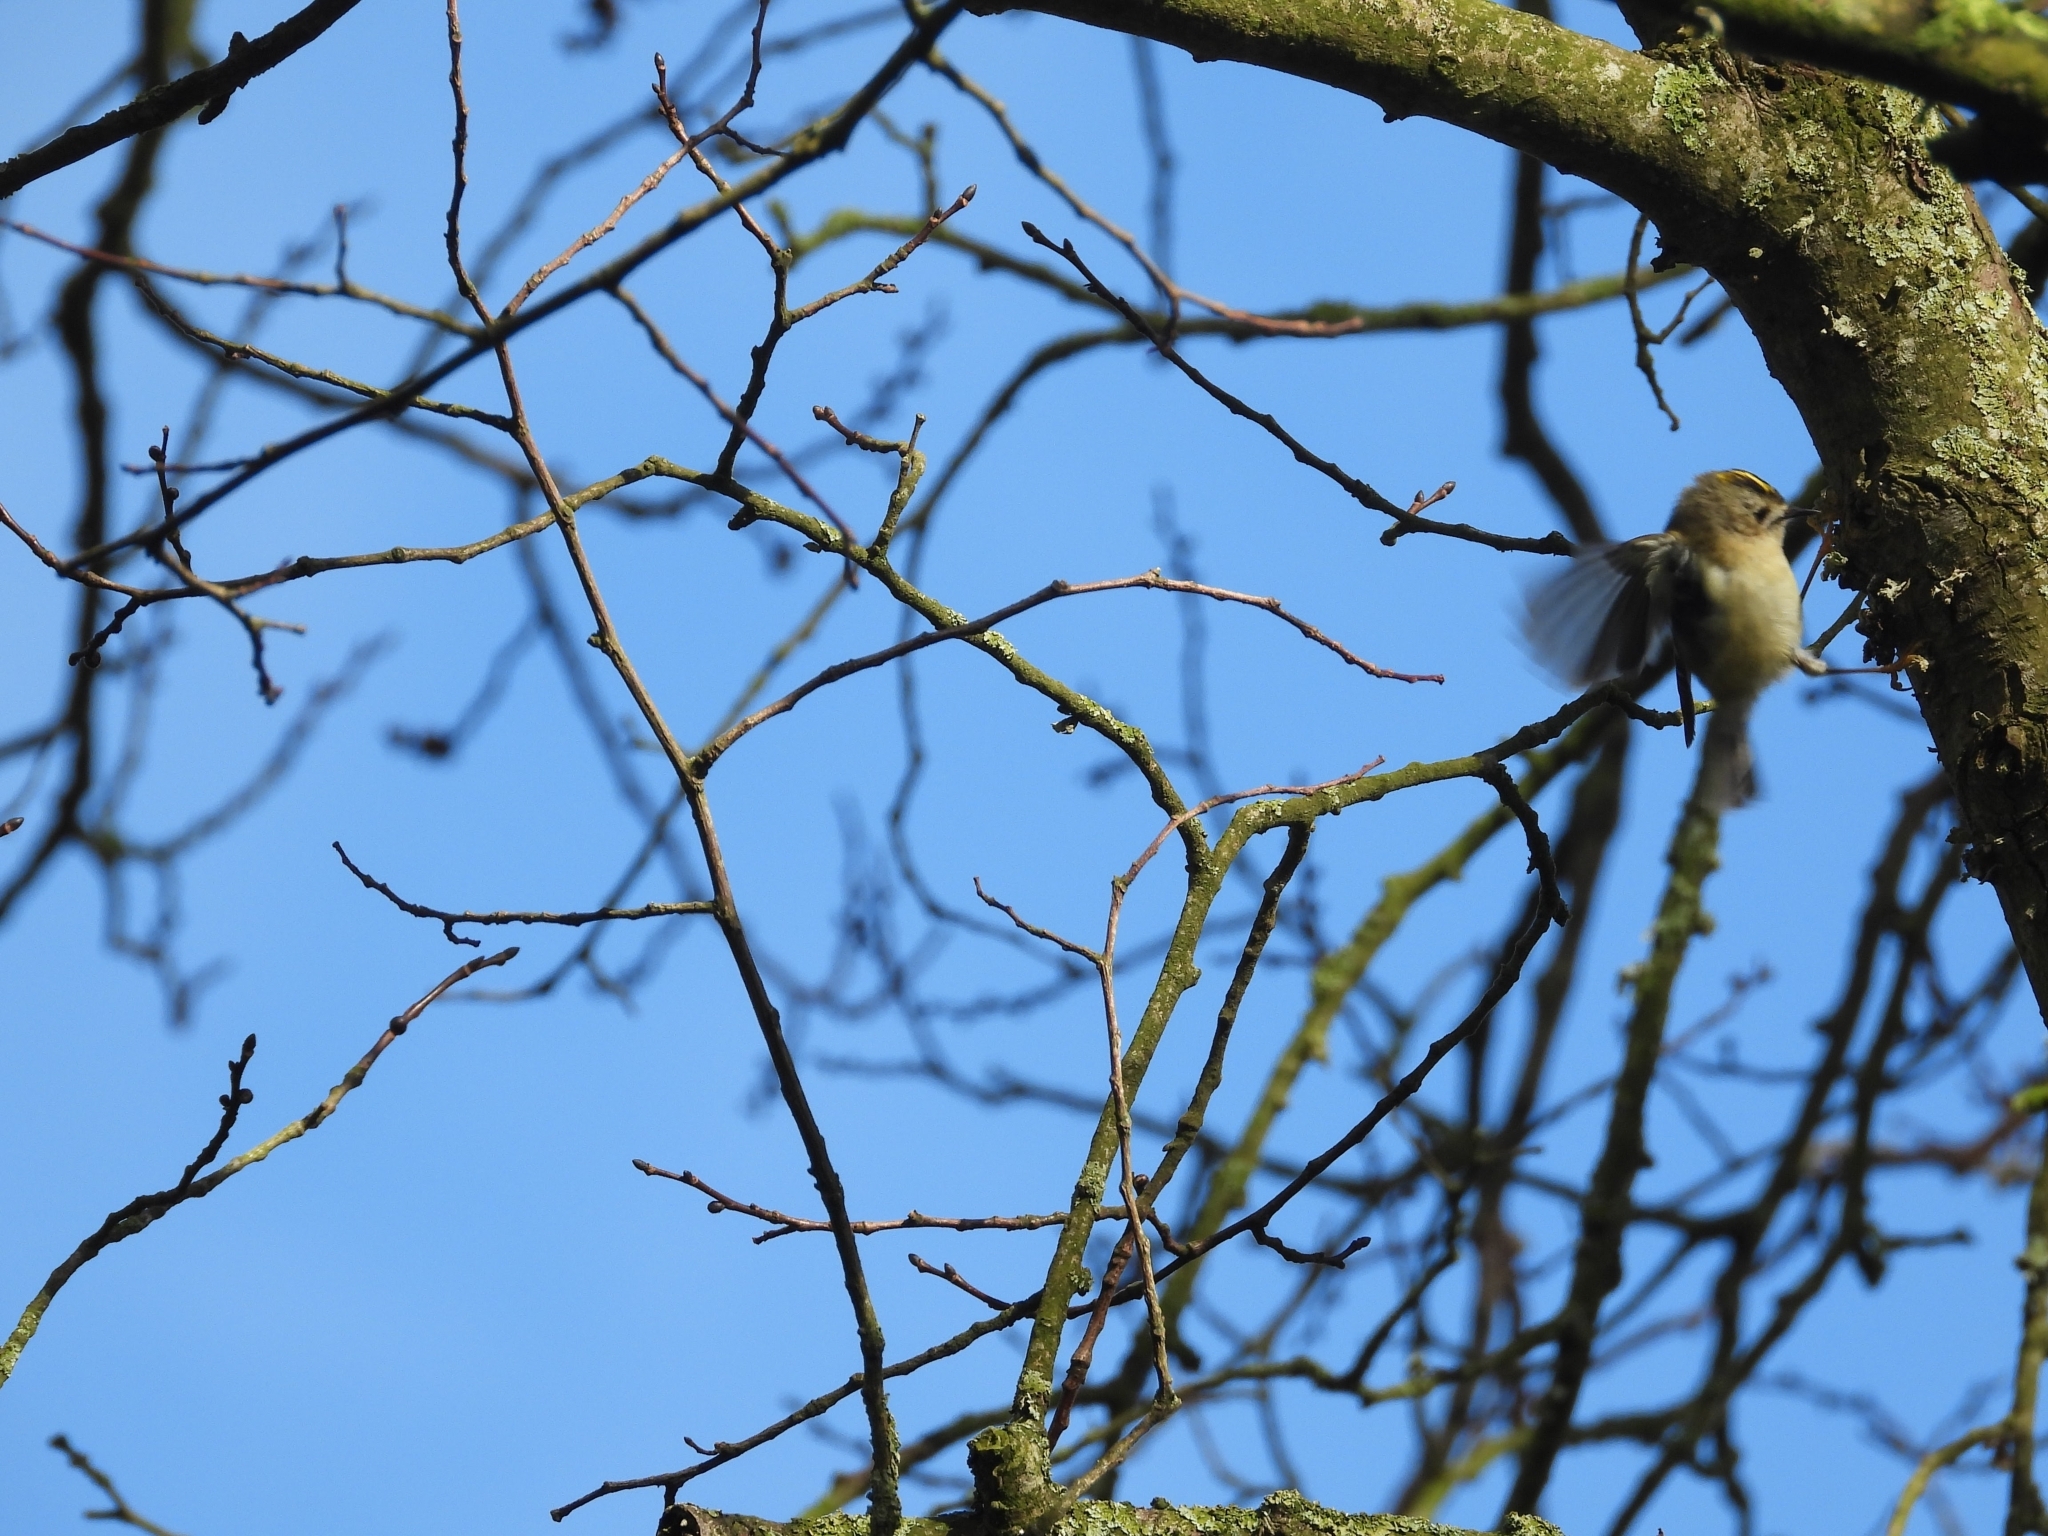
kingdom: Animalia
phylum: Chordata
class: Aves
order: Passeriformes
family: Regulidae
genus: Regulus
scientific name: Regulus regulus
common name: Goldcrest
